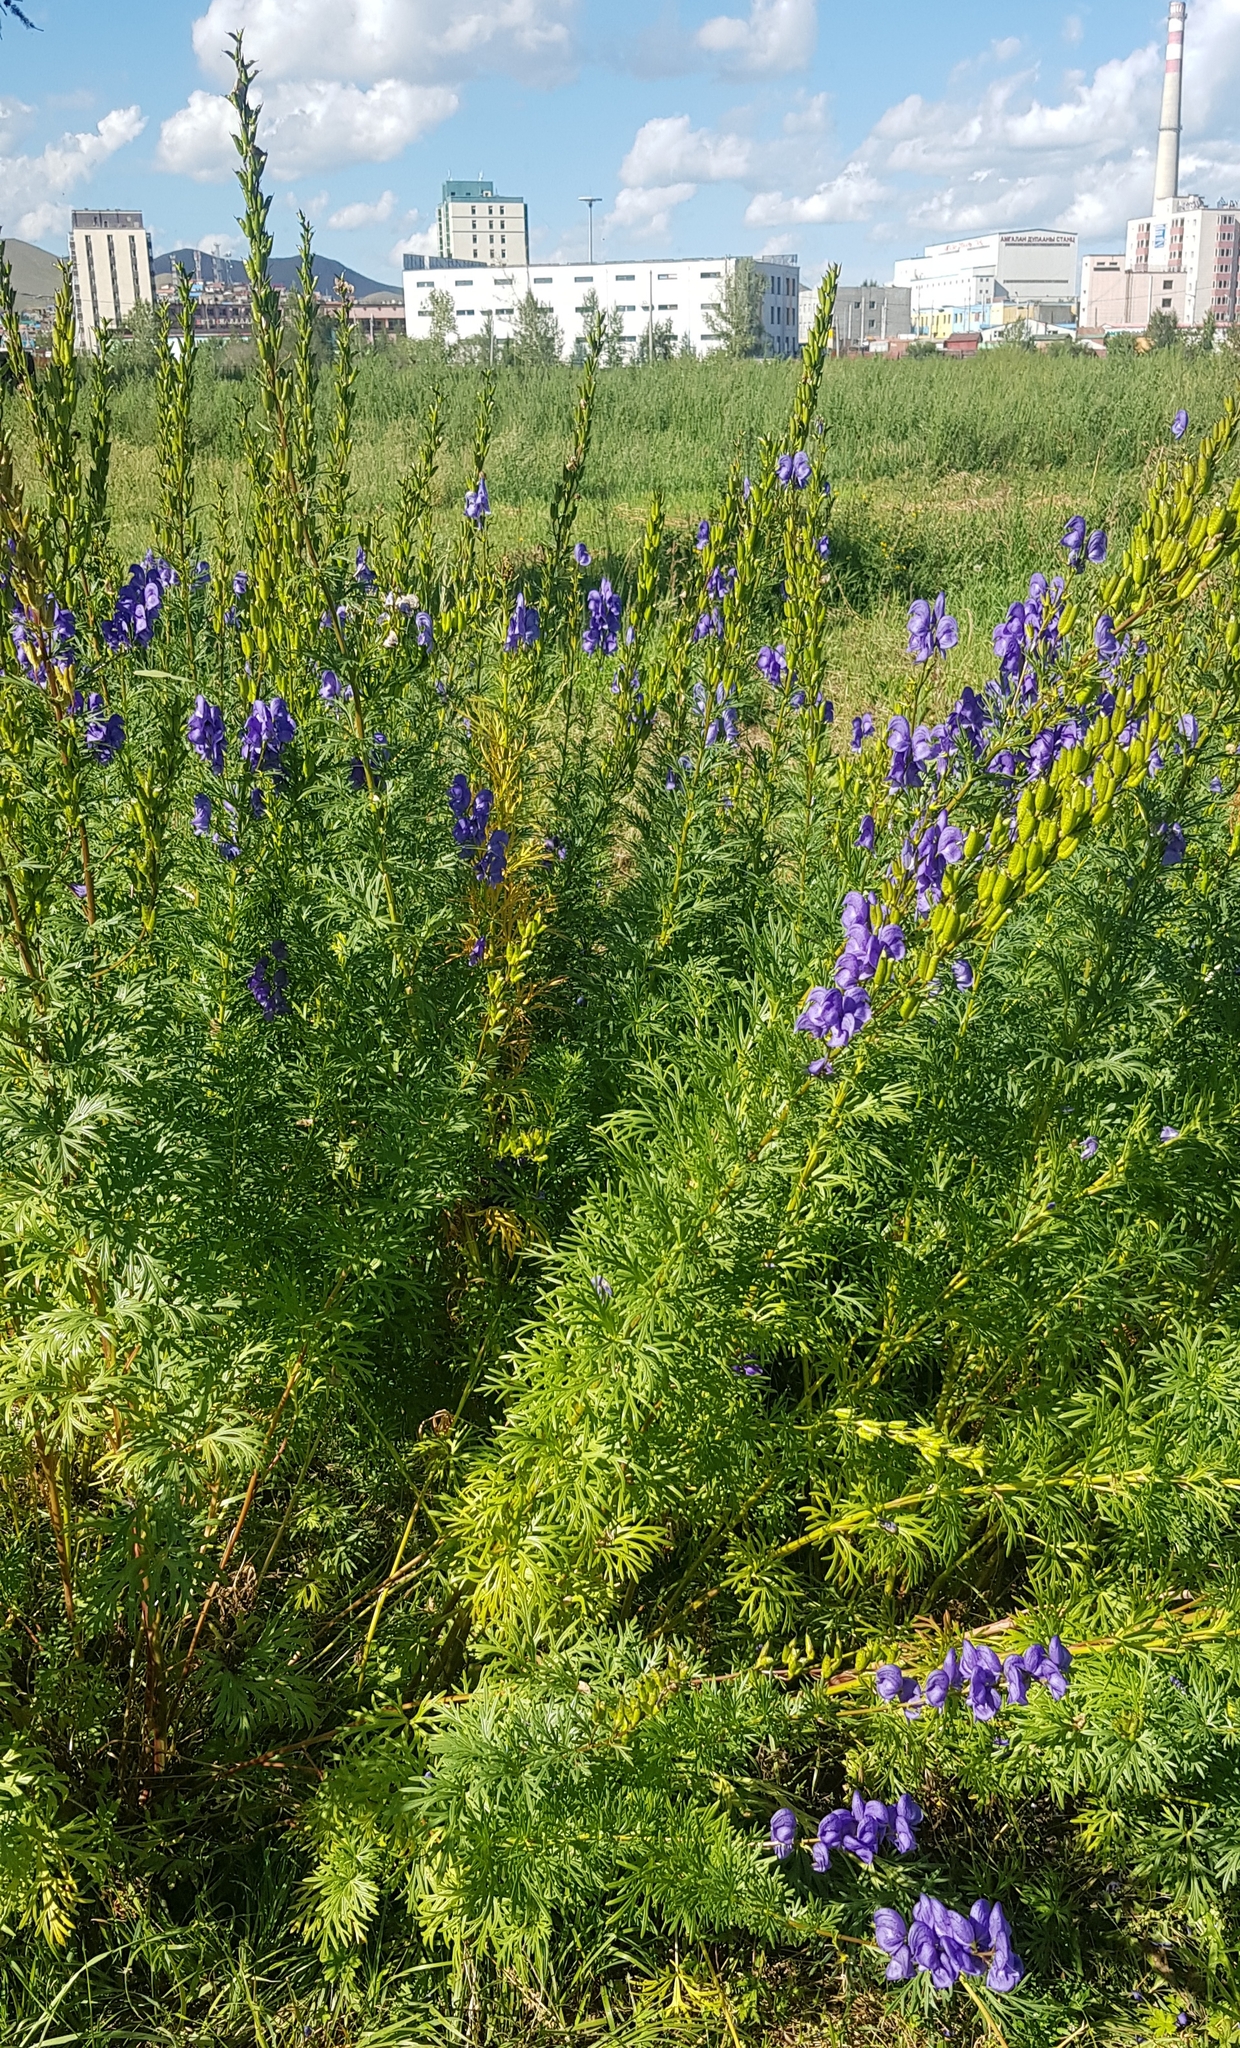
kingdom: Plantae
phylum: Tracheophyta
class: Magnoliopsida
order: Ranunculales
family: Ranunculaceae
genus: Aconitum
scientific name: Aconitum turczaninowii
